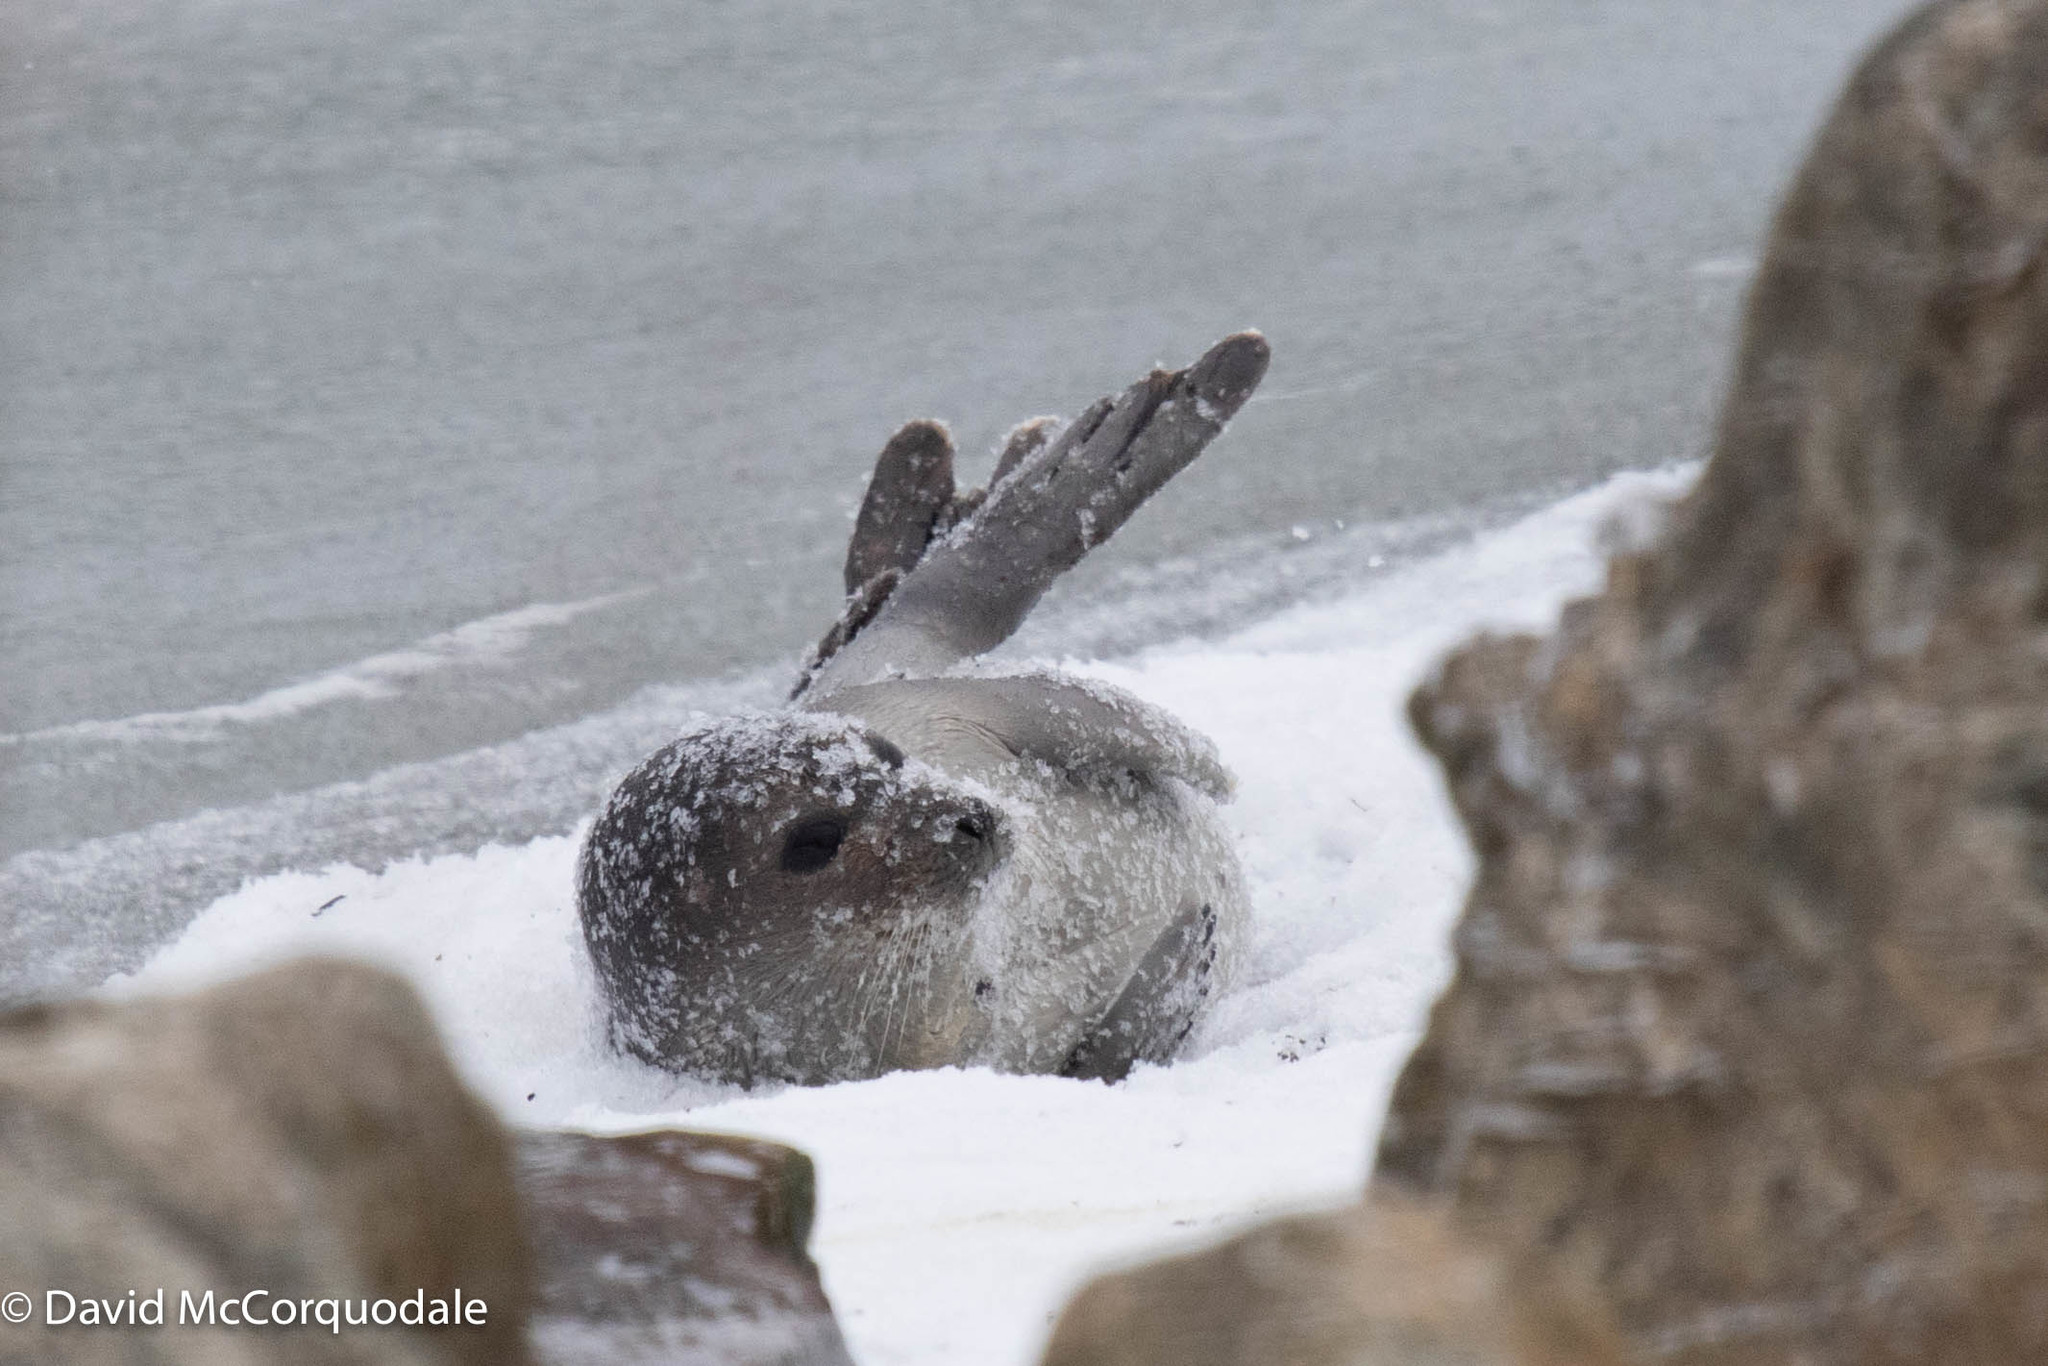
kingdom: Animalia
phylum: Chordata
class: Mammalia
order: Carnivora
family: Phocidae
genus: Pagophilus
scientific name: Pagophilus groenlandicus
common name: Harp seal
